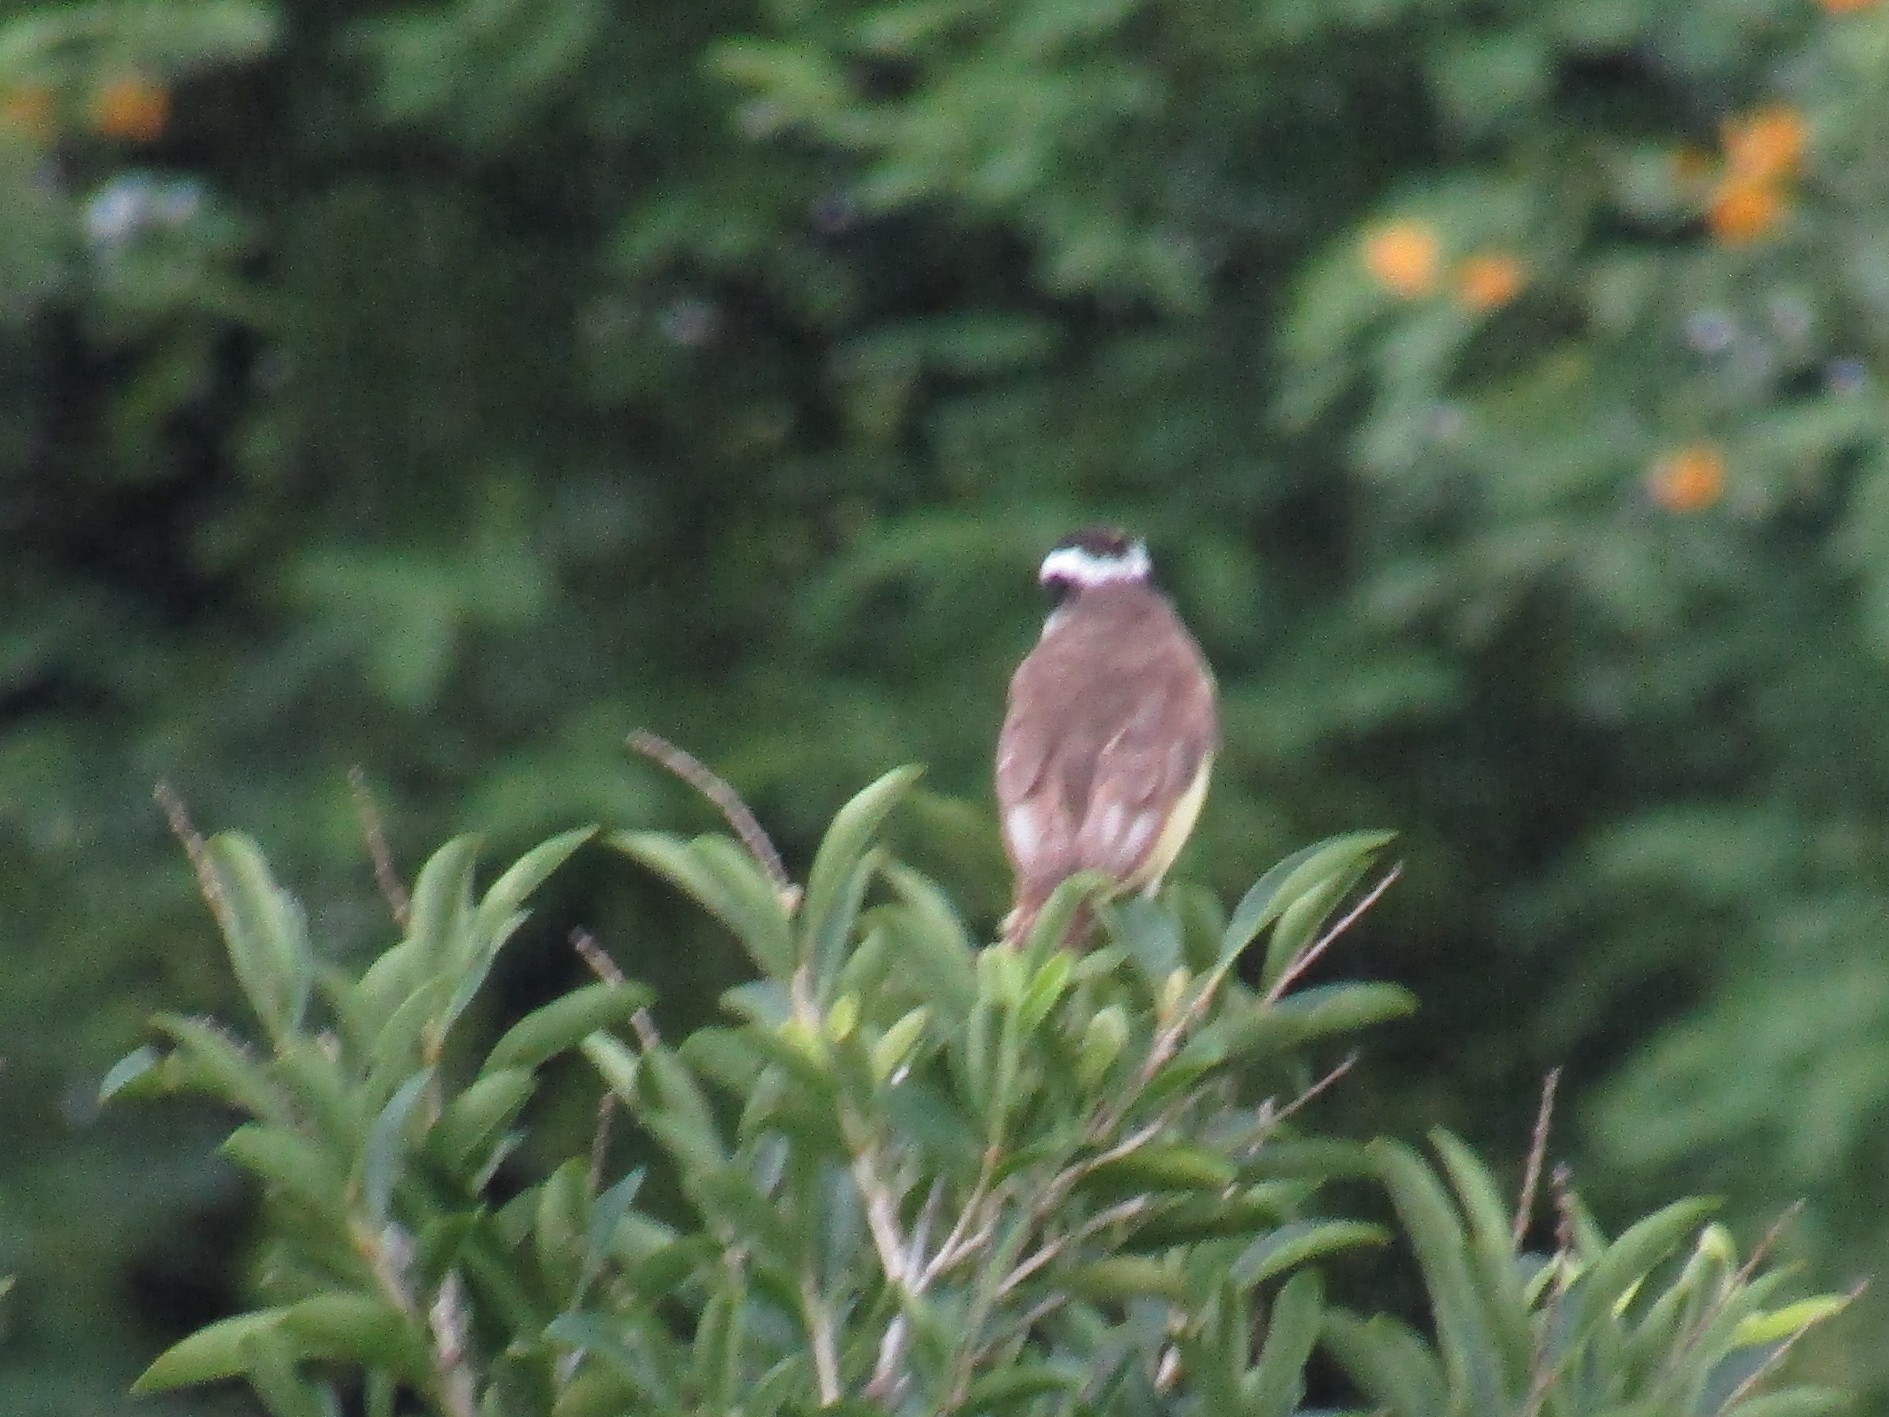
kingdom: Animalia
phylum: Chordata
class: Aves
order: Passeriformes
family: Tyrannidae
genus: Pitangus
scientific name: Pitangus sulphuratus
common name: Great kiskadee
